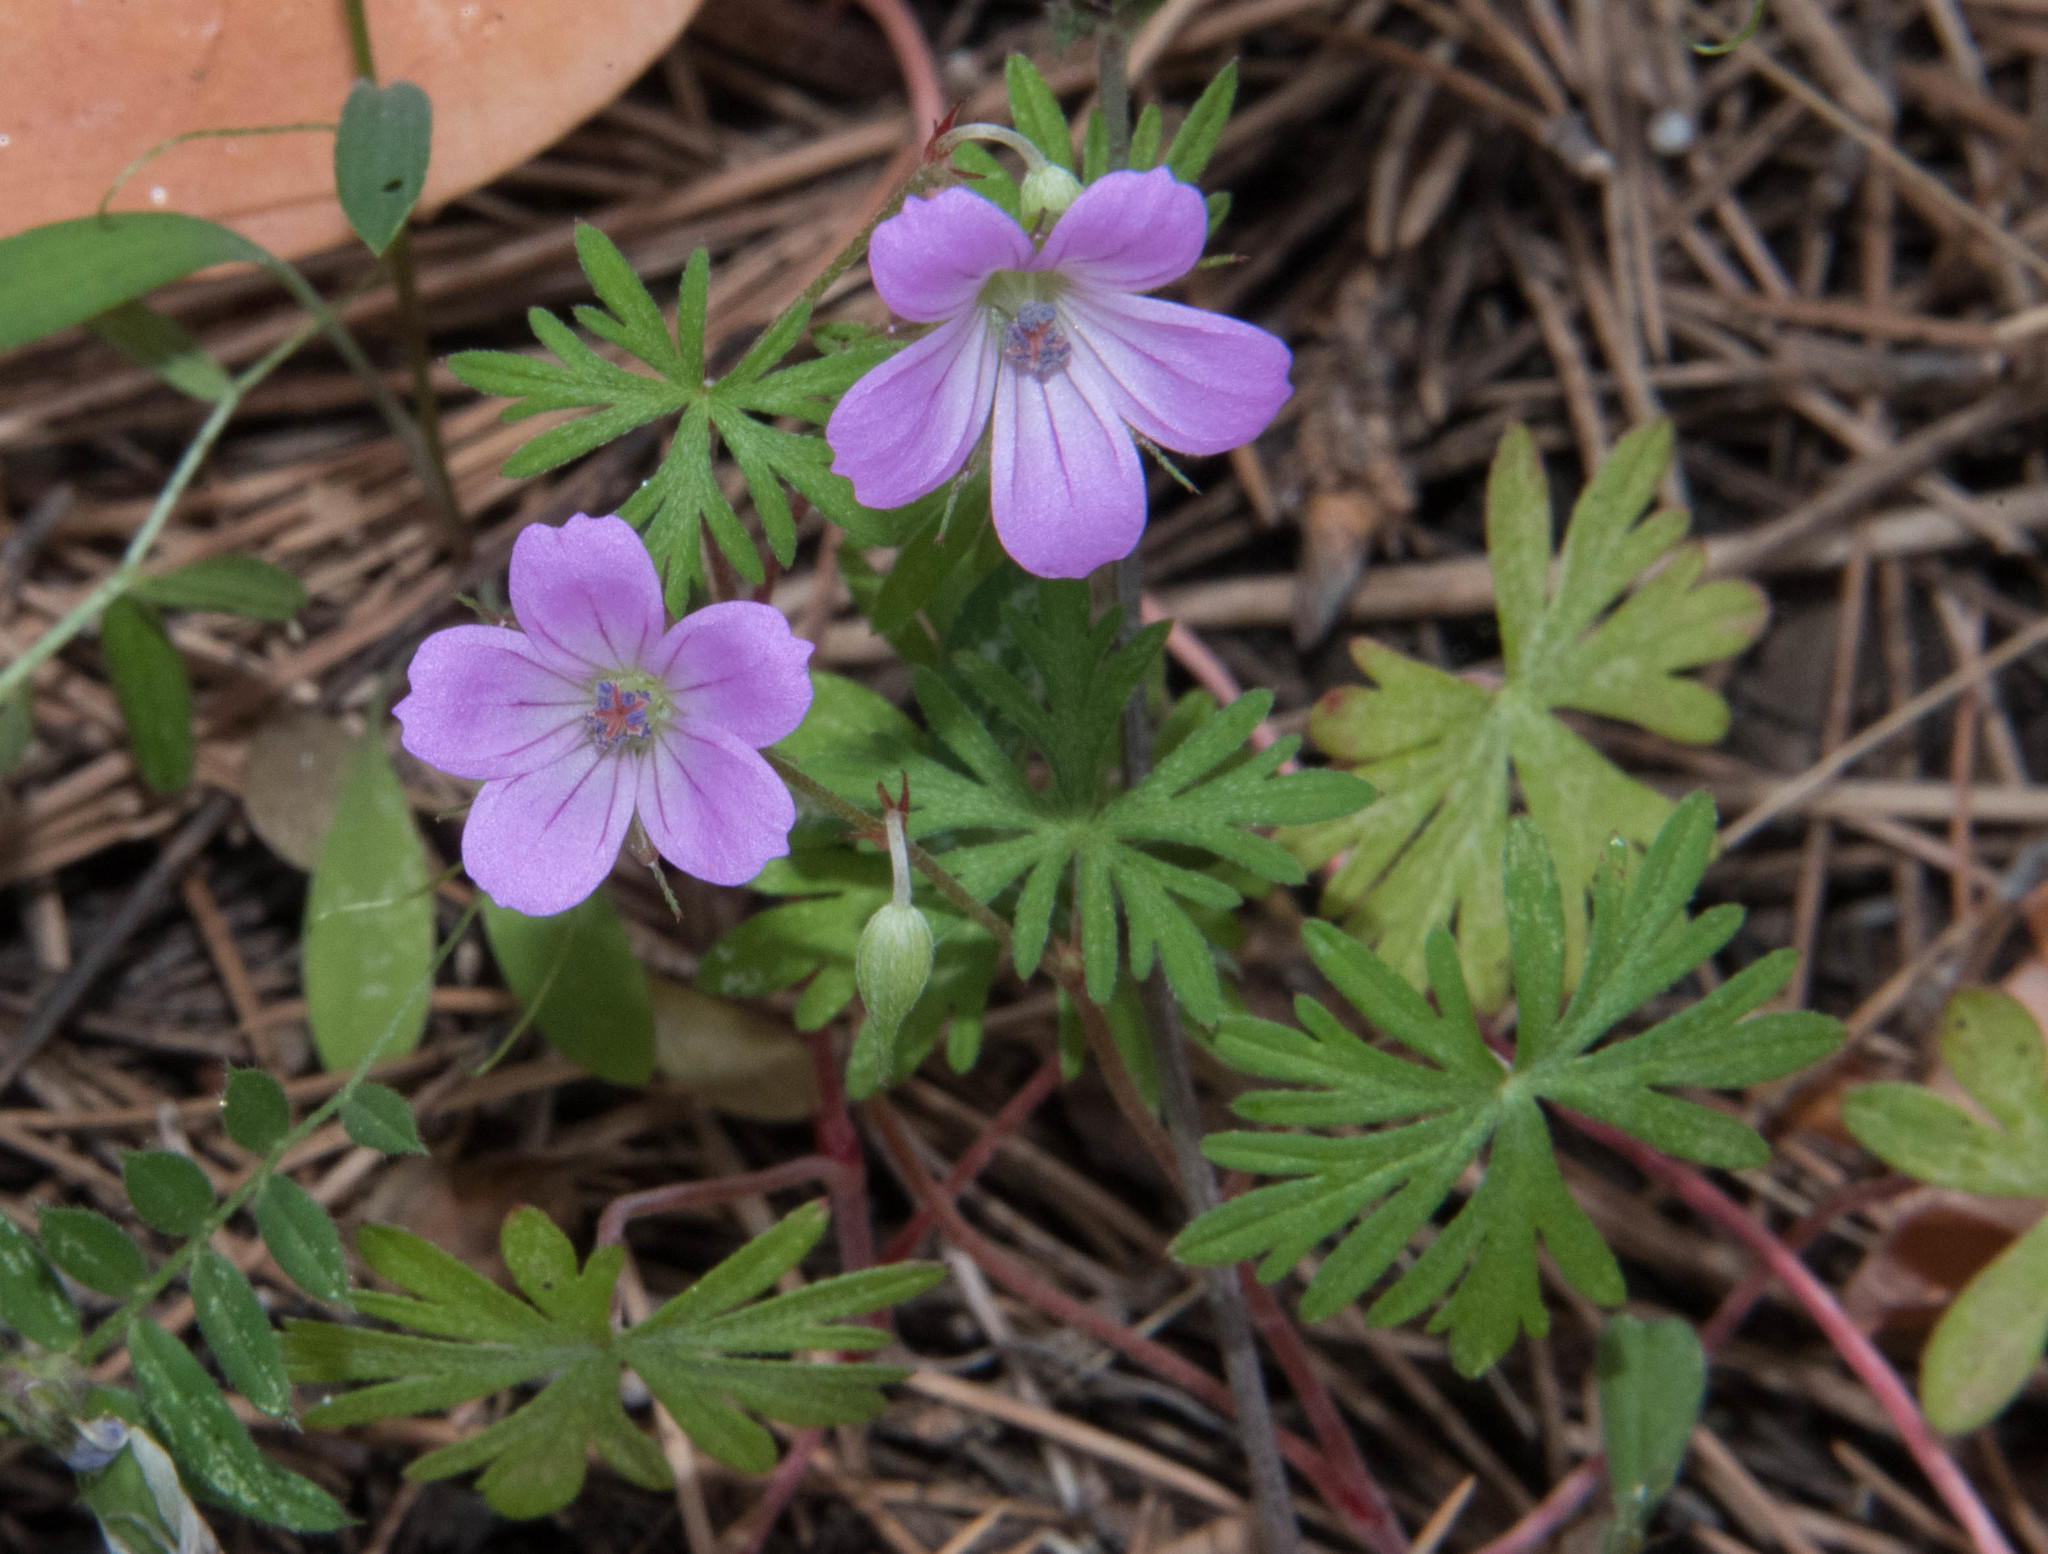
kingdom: Plantae
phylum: Tracheophyta
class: Magnoliopsida
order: Geraniales
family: Geraniaceae
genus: Geranium
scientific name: Geranium columbinum
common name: Long-stalked crane's-bill
